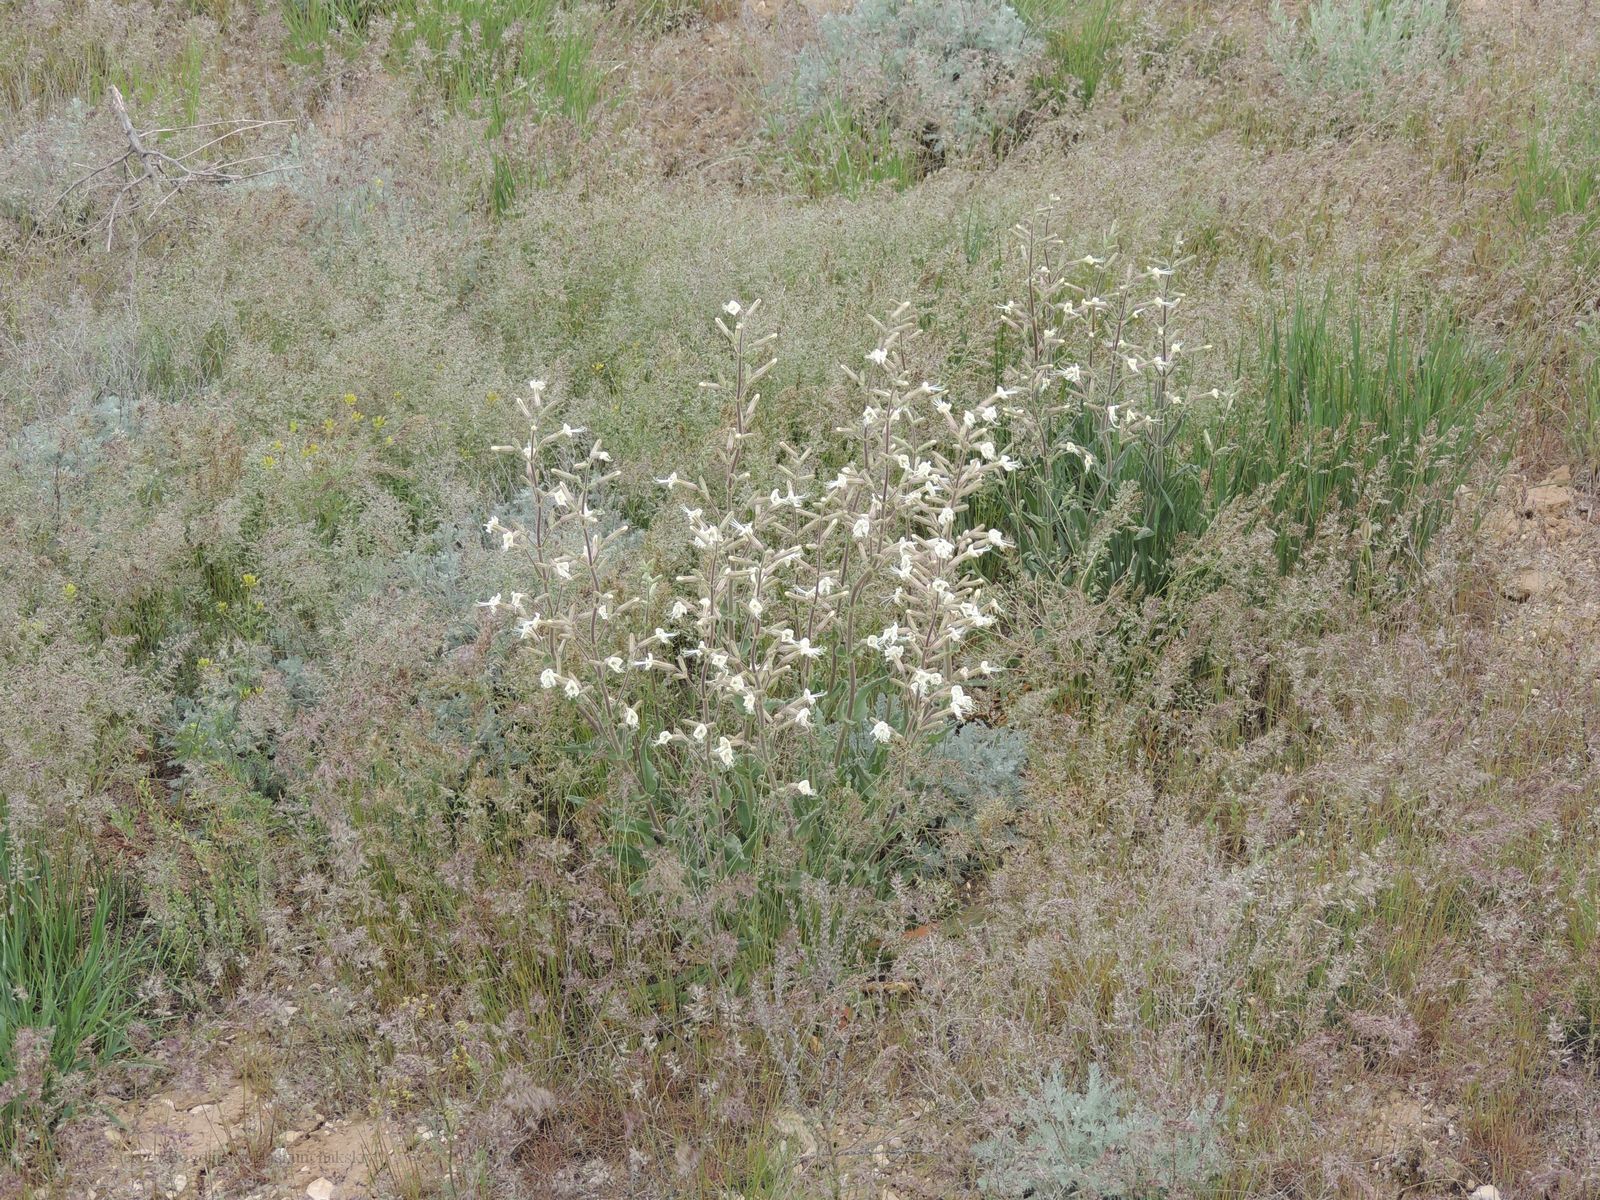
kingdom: Plantae
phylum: Tracheophyta
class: Magnoliopsida
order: Caryophyllales
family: Caryophyllaceae
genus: Silene
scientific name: Silene viscosa
